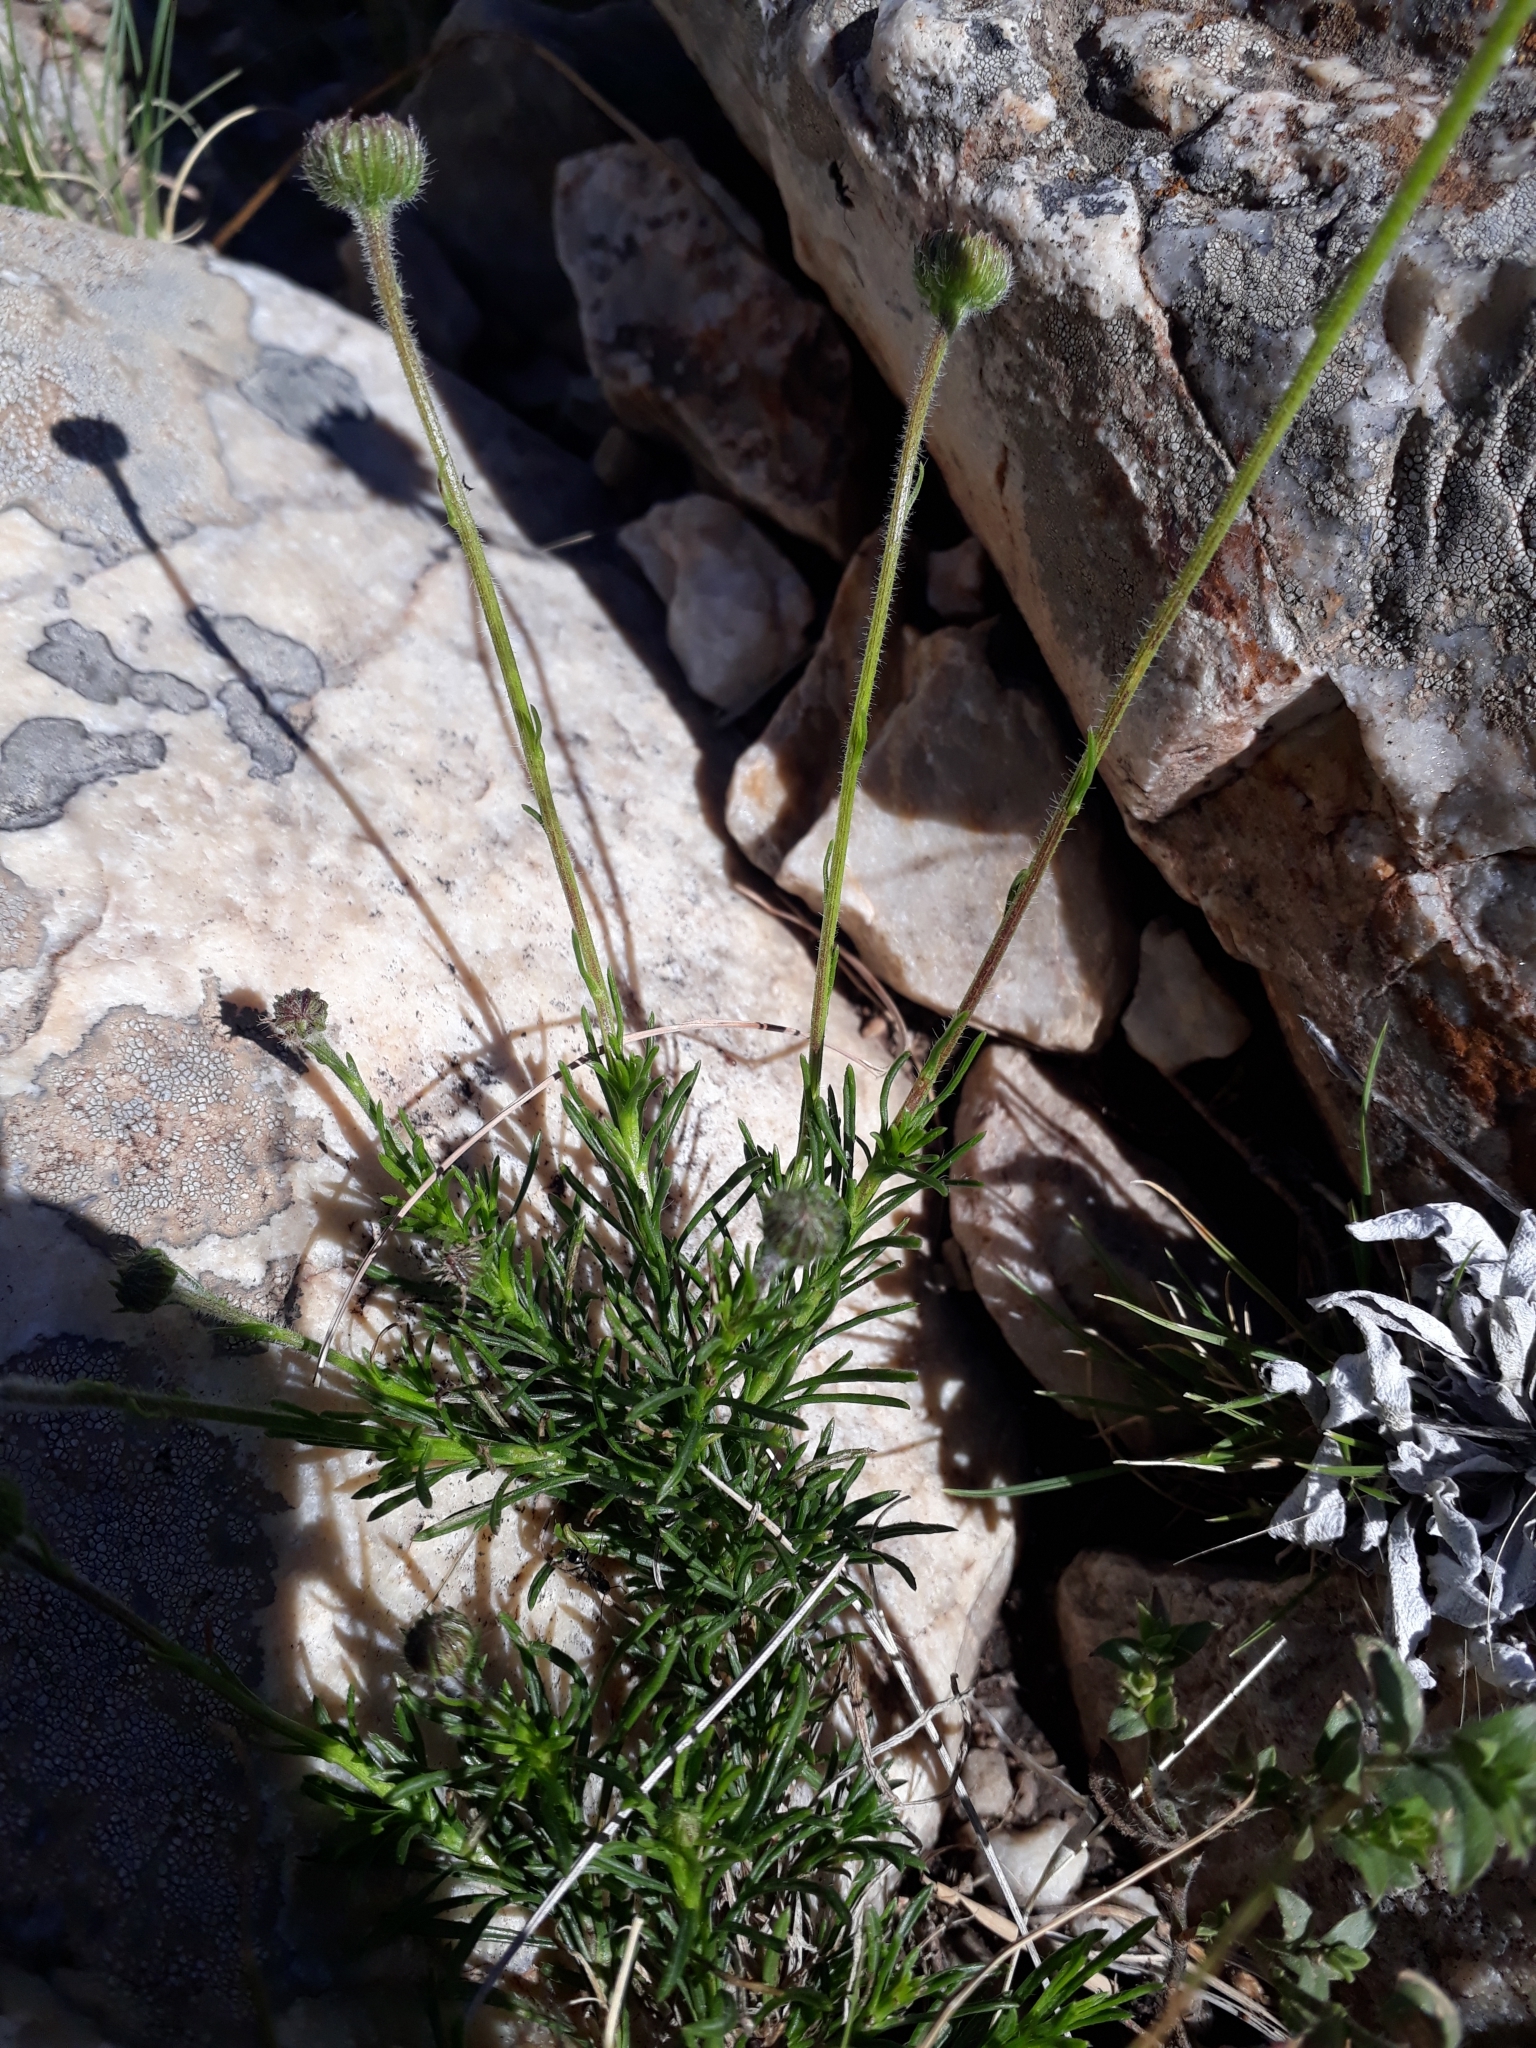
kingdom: Plantae
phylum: Tracheophyta
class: Magnoliopsida
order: Asterales
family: Asteraceae
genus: Neja
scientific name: Neja pinifolia
